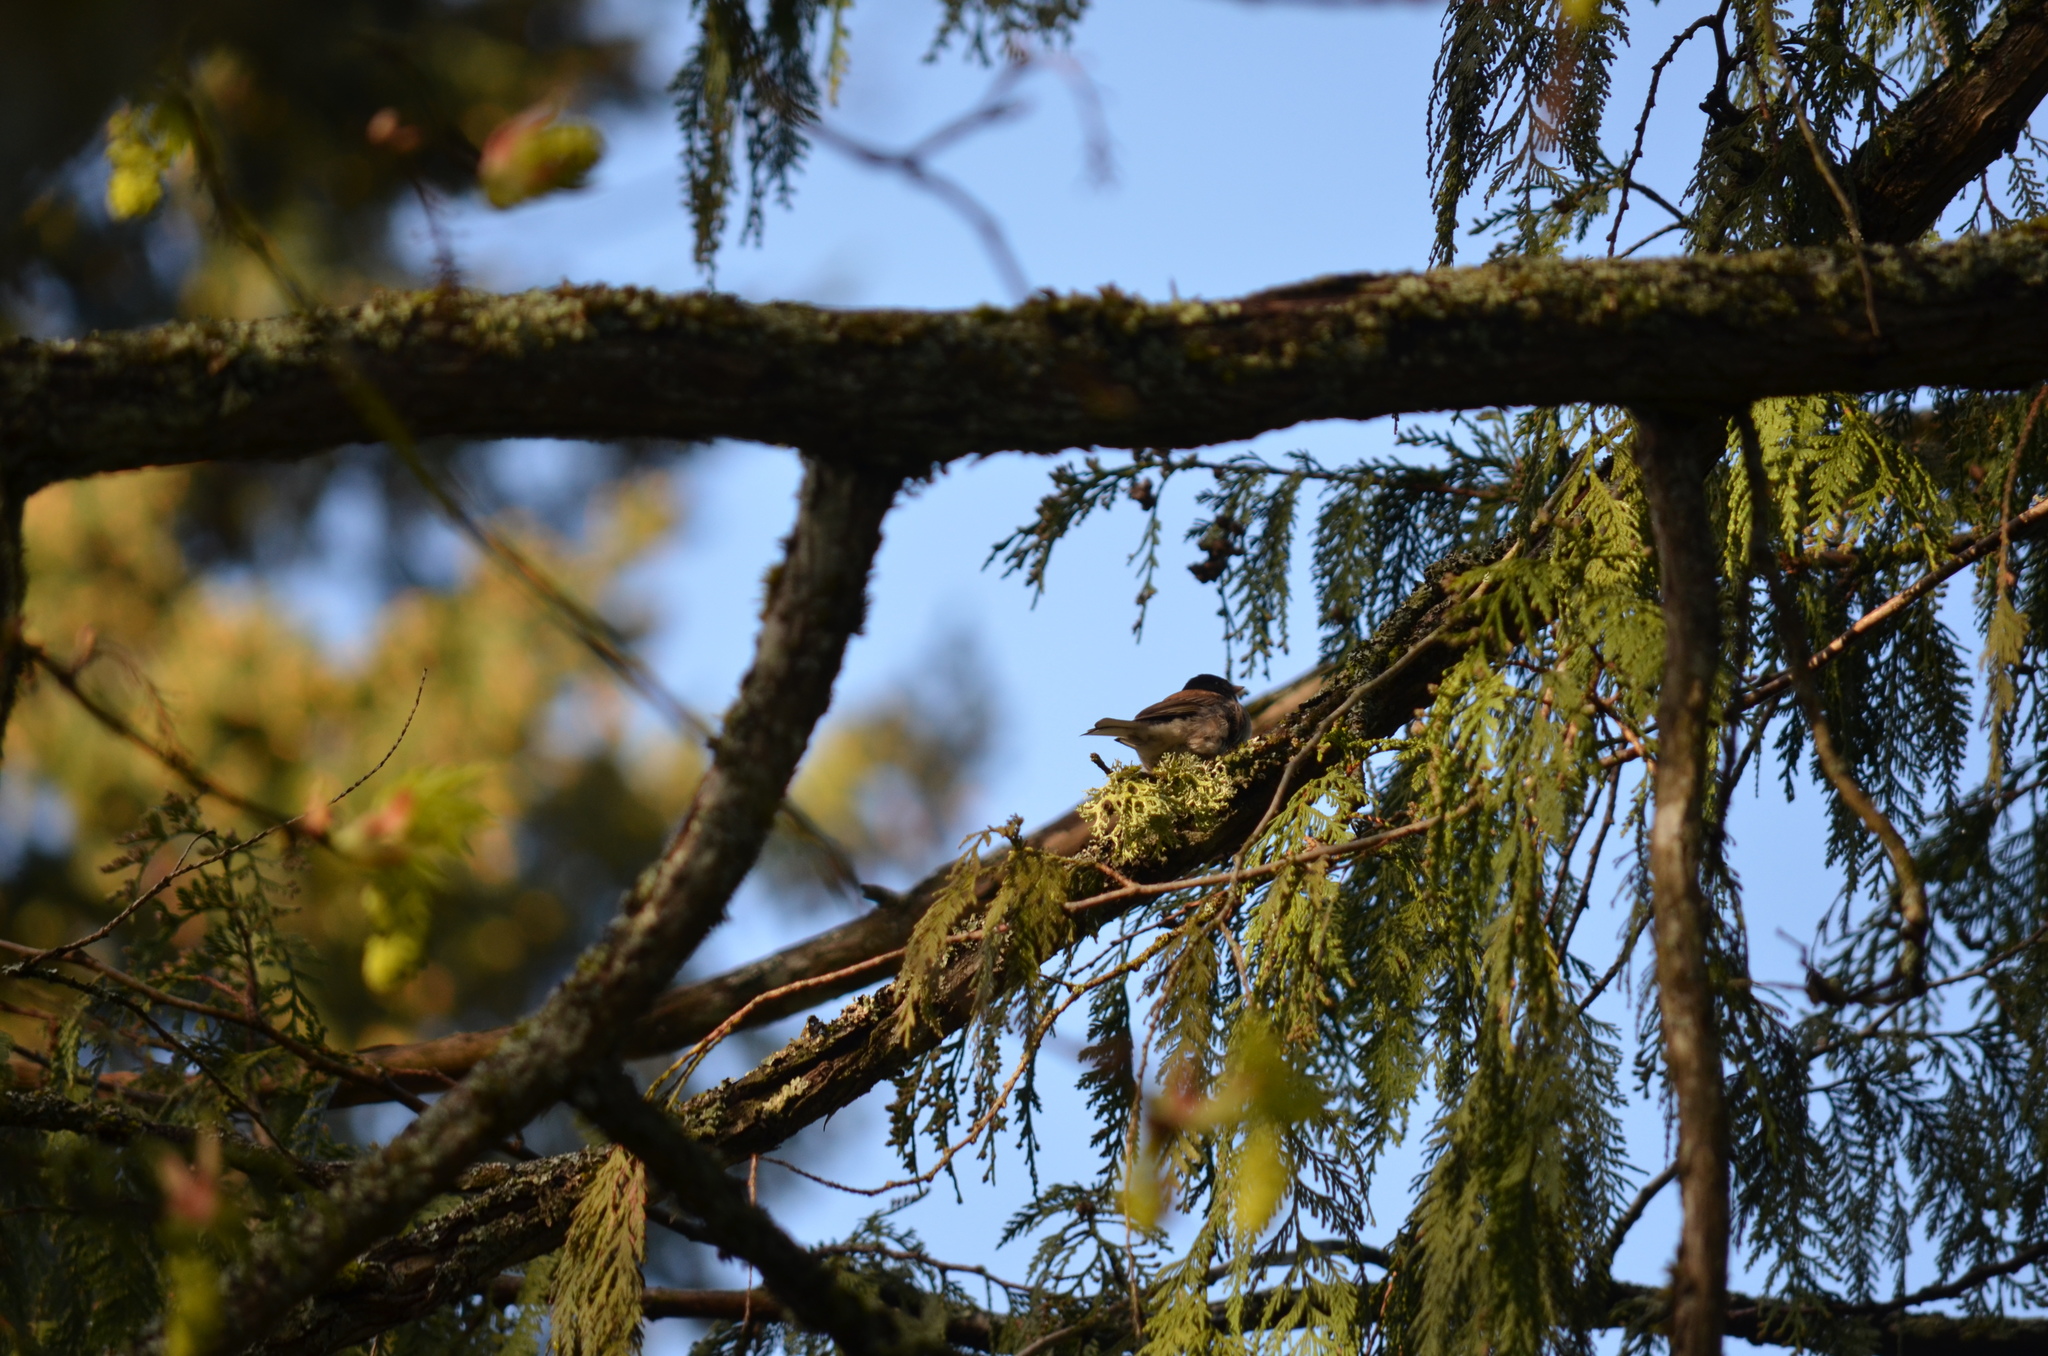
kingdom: Animalia
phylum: Chordata
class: Aves
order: Passeriformes
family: Passerellidae
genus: Junco
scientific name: Junco hyemalis
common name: Dark-eyed junco
